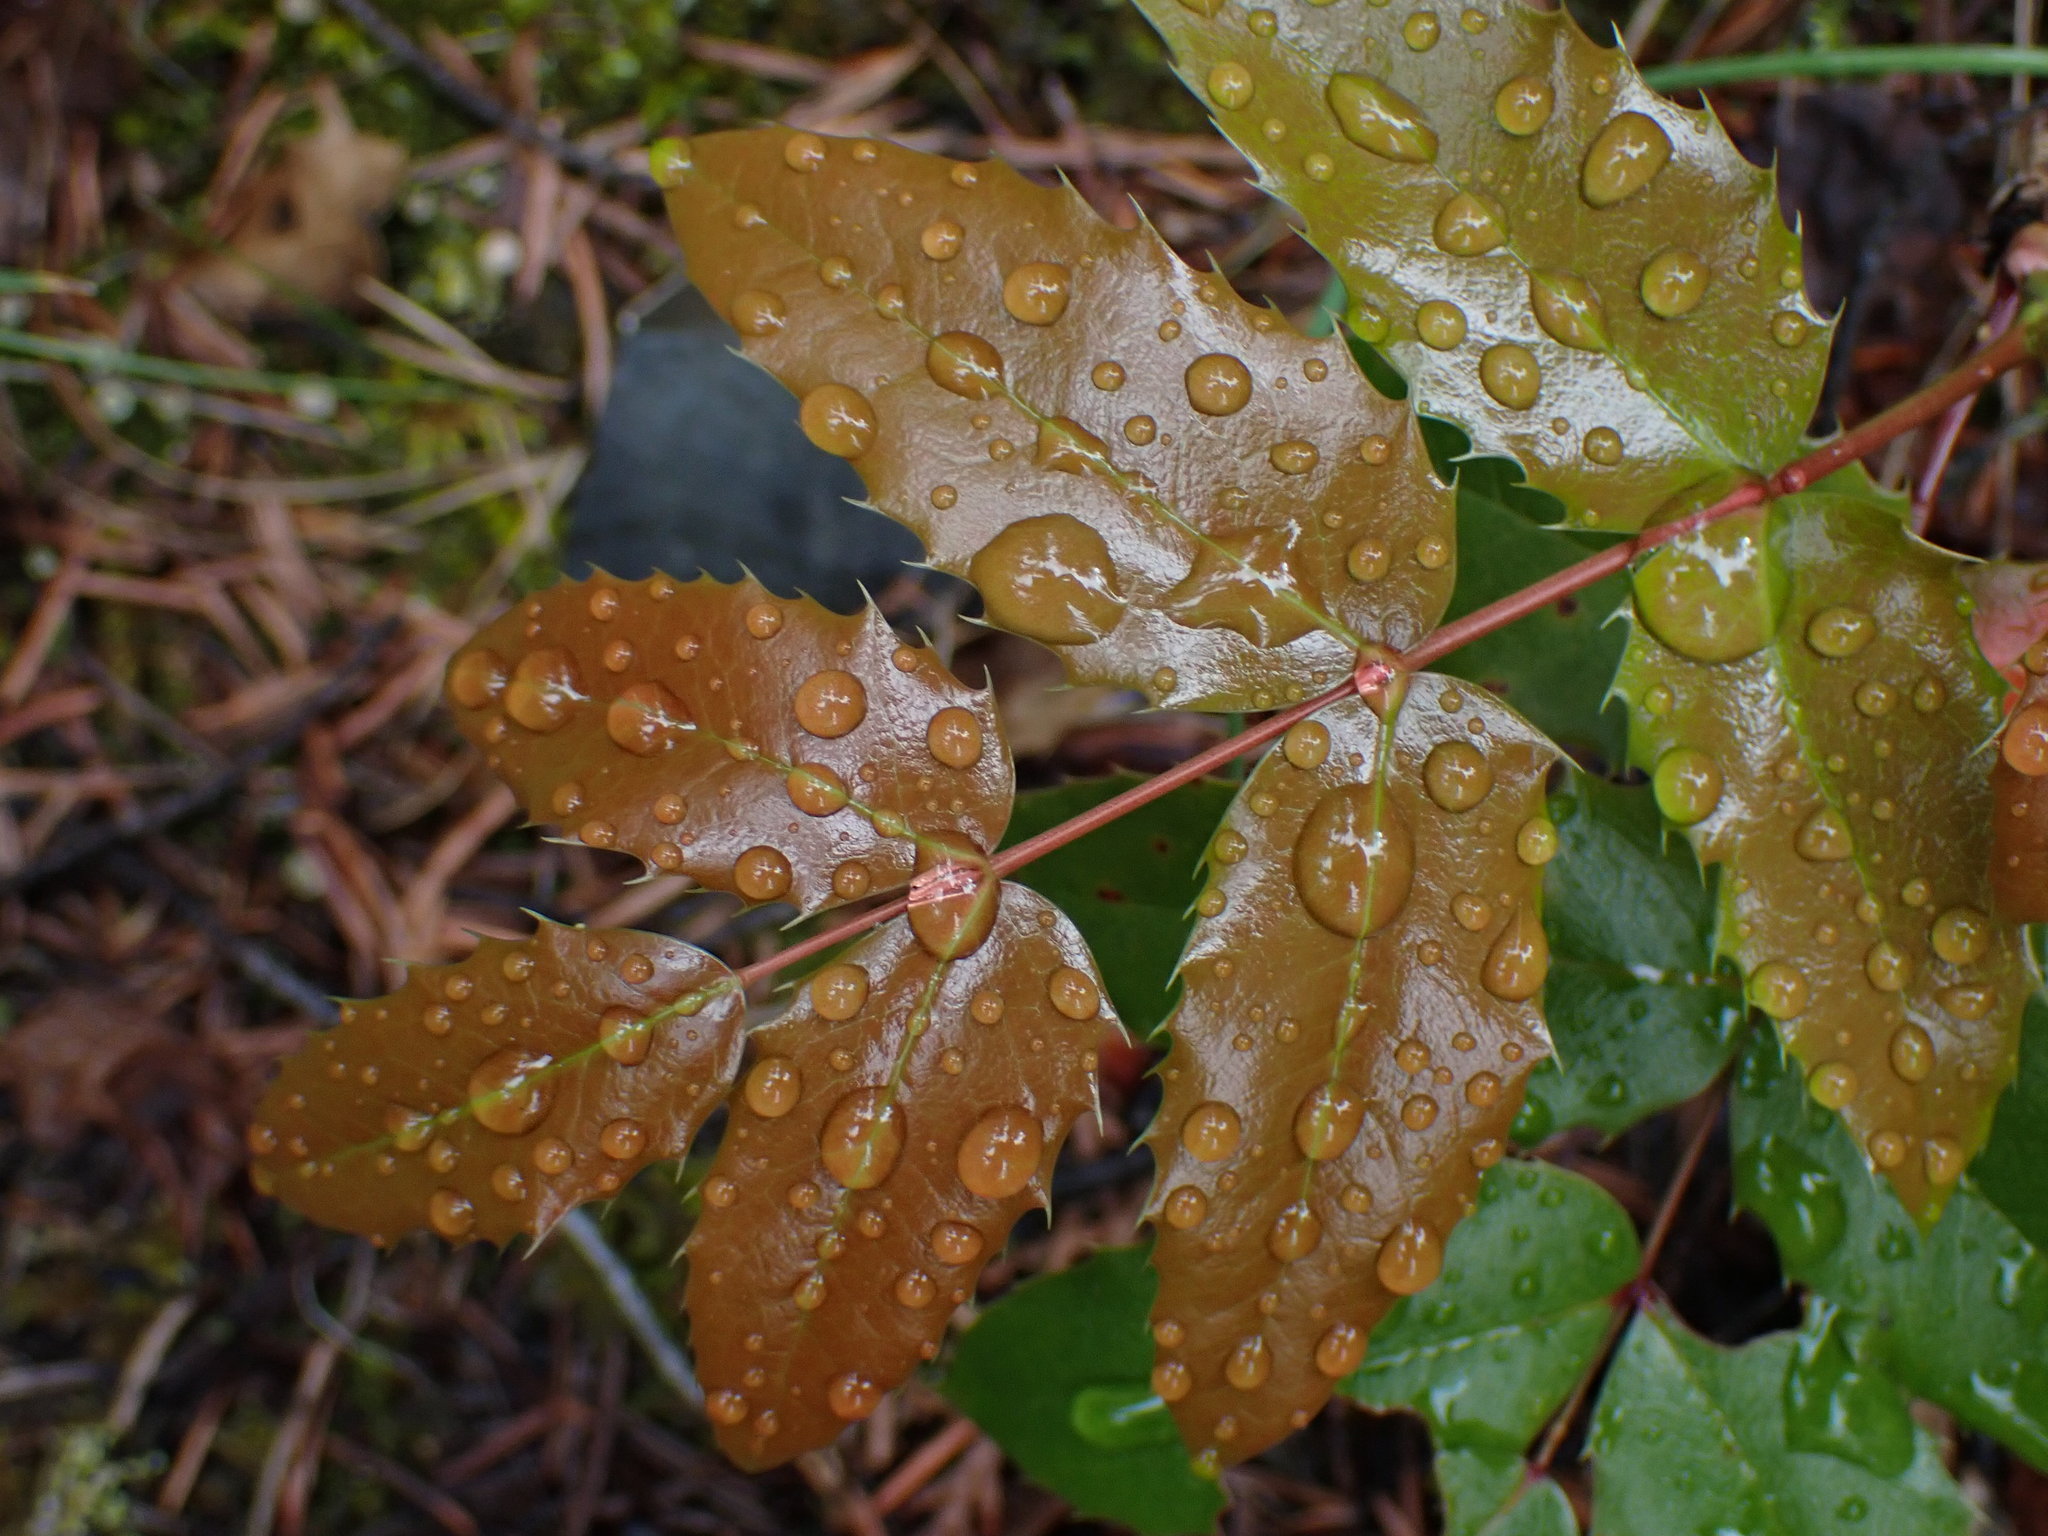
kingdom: Plantae
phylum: Tracheophyta
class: Magnoliopsida
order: Ranunculales
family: Berberidaceae
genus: Mahonia
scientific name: Mahonia aquifolium
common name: Oregon-grape
